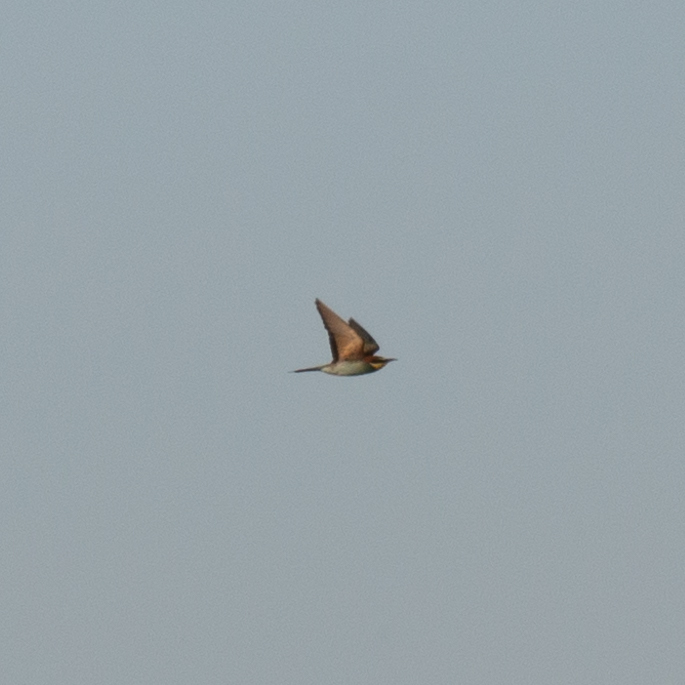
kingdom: Animalia
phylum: Chordata
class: Aves
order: Coraciiformes
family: Meropidae
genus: Merops
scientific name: Merops apiaster
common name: European bee-eater
